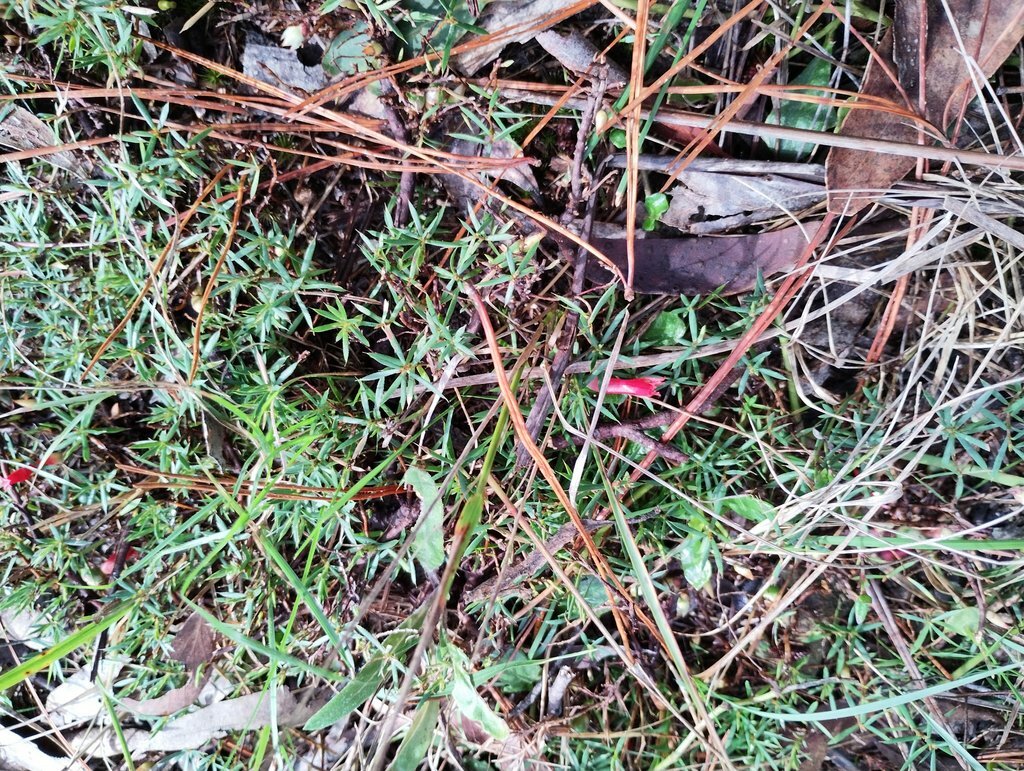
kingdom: Plantae
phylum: Tracheophyta
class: Magnoliopsida
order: Ericales
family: Ericaceae
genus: Styphelia
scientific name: Styphelia humifusa
